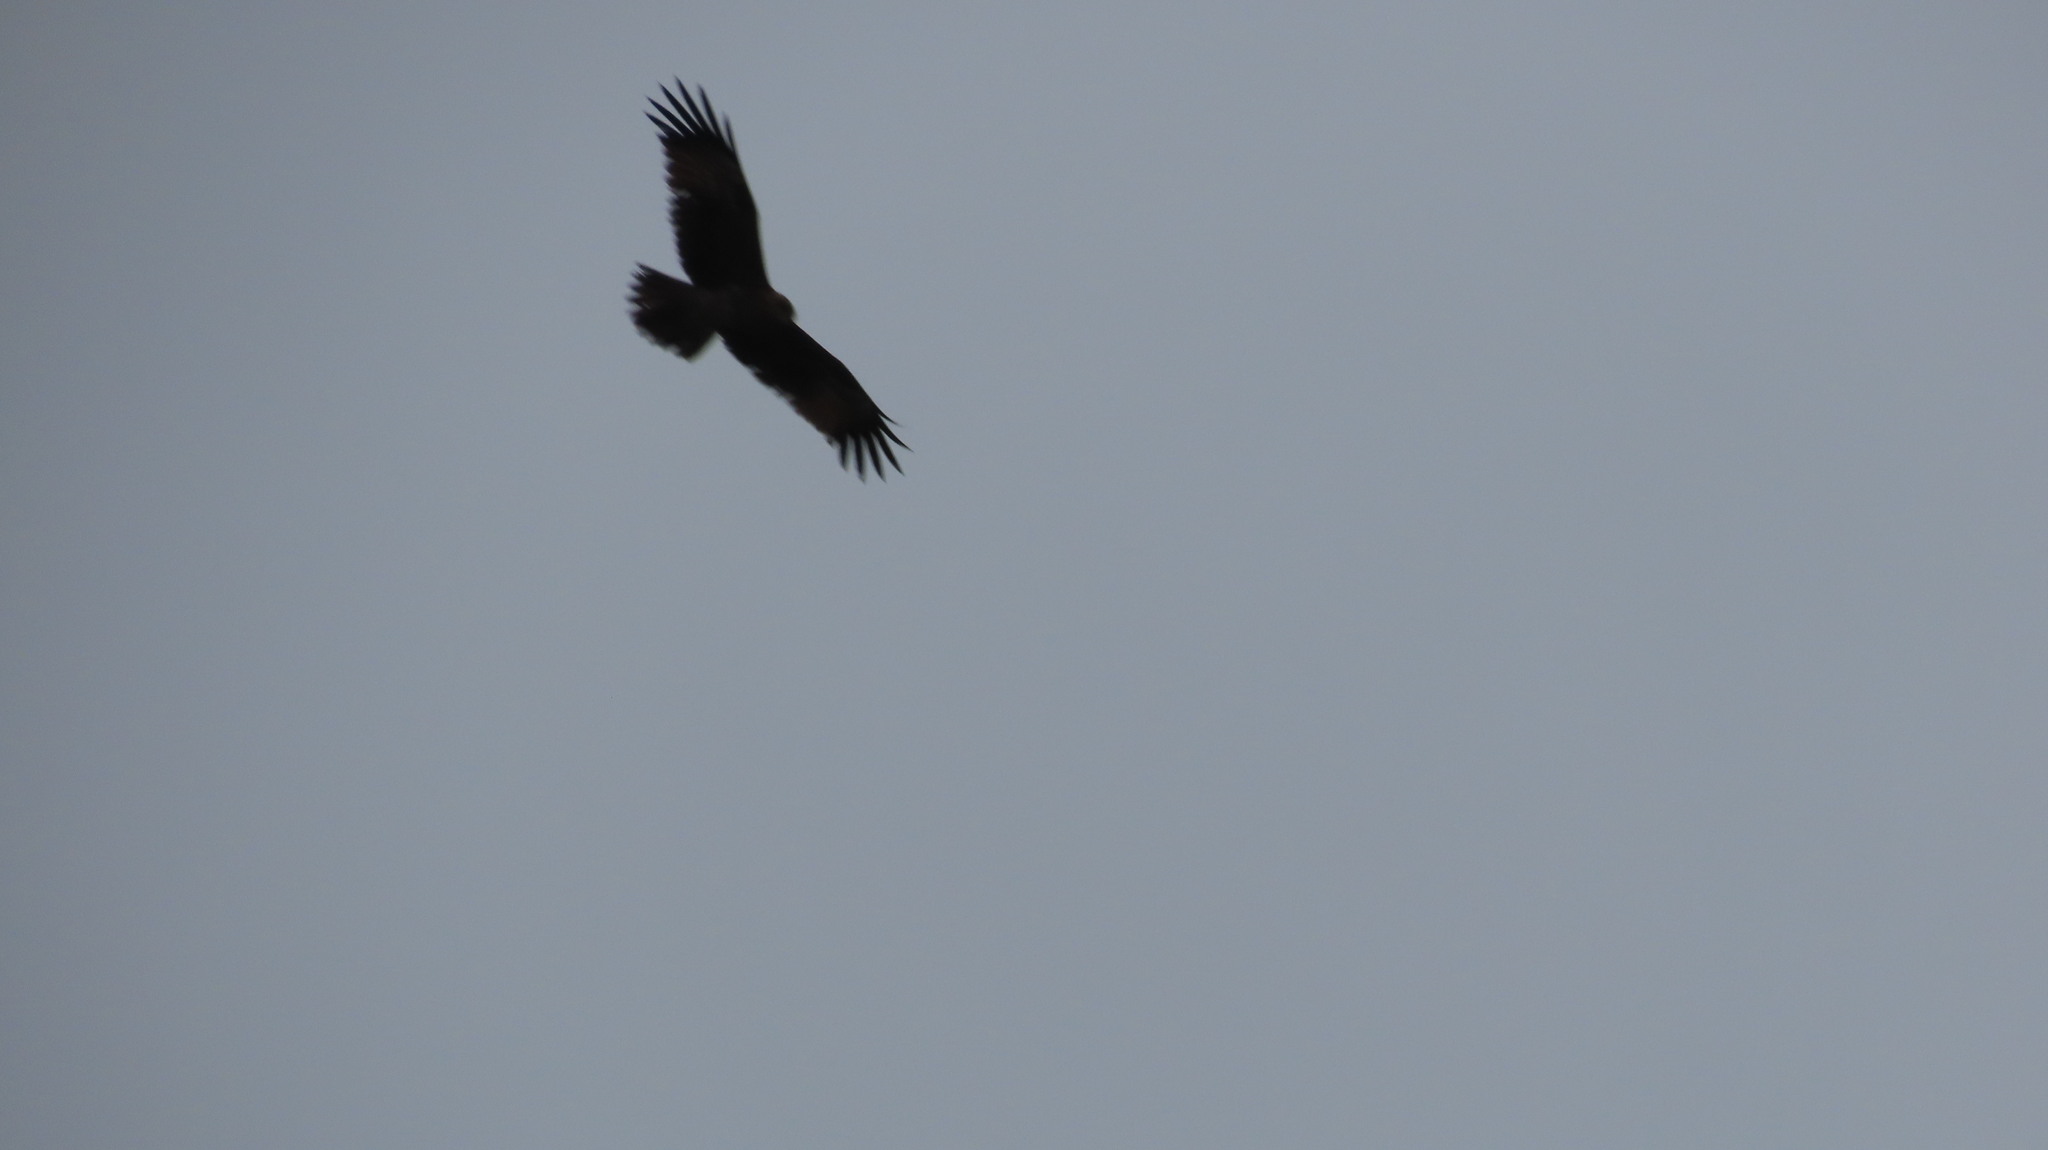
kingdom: Animalia
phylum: Chordata
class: Aves
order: Accipitriformes
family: Accipitridae
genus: Haliastur
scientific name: Haliastur indus
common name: Brahminy kite
